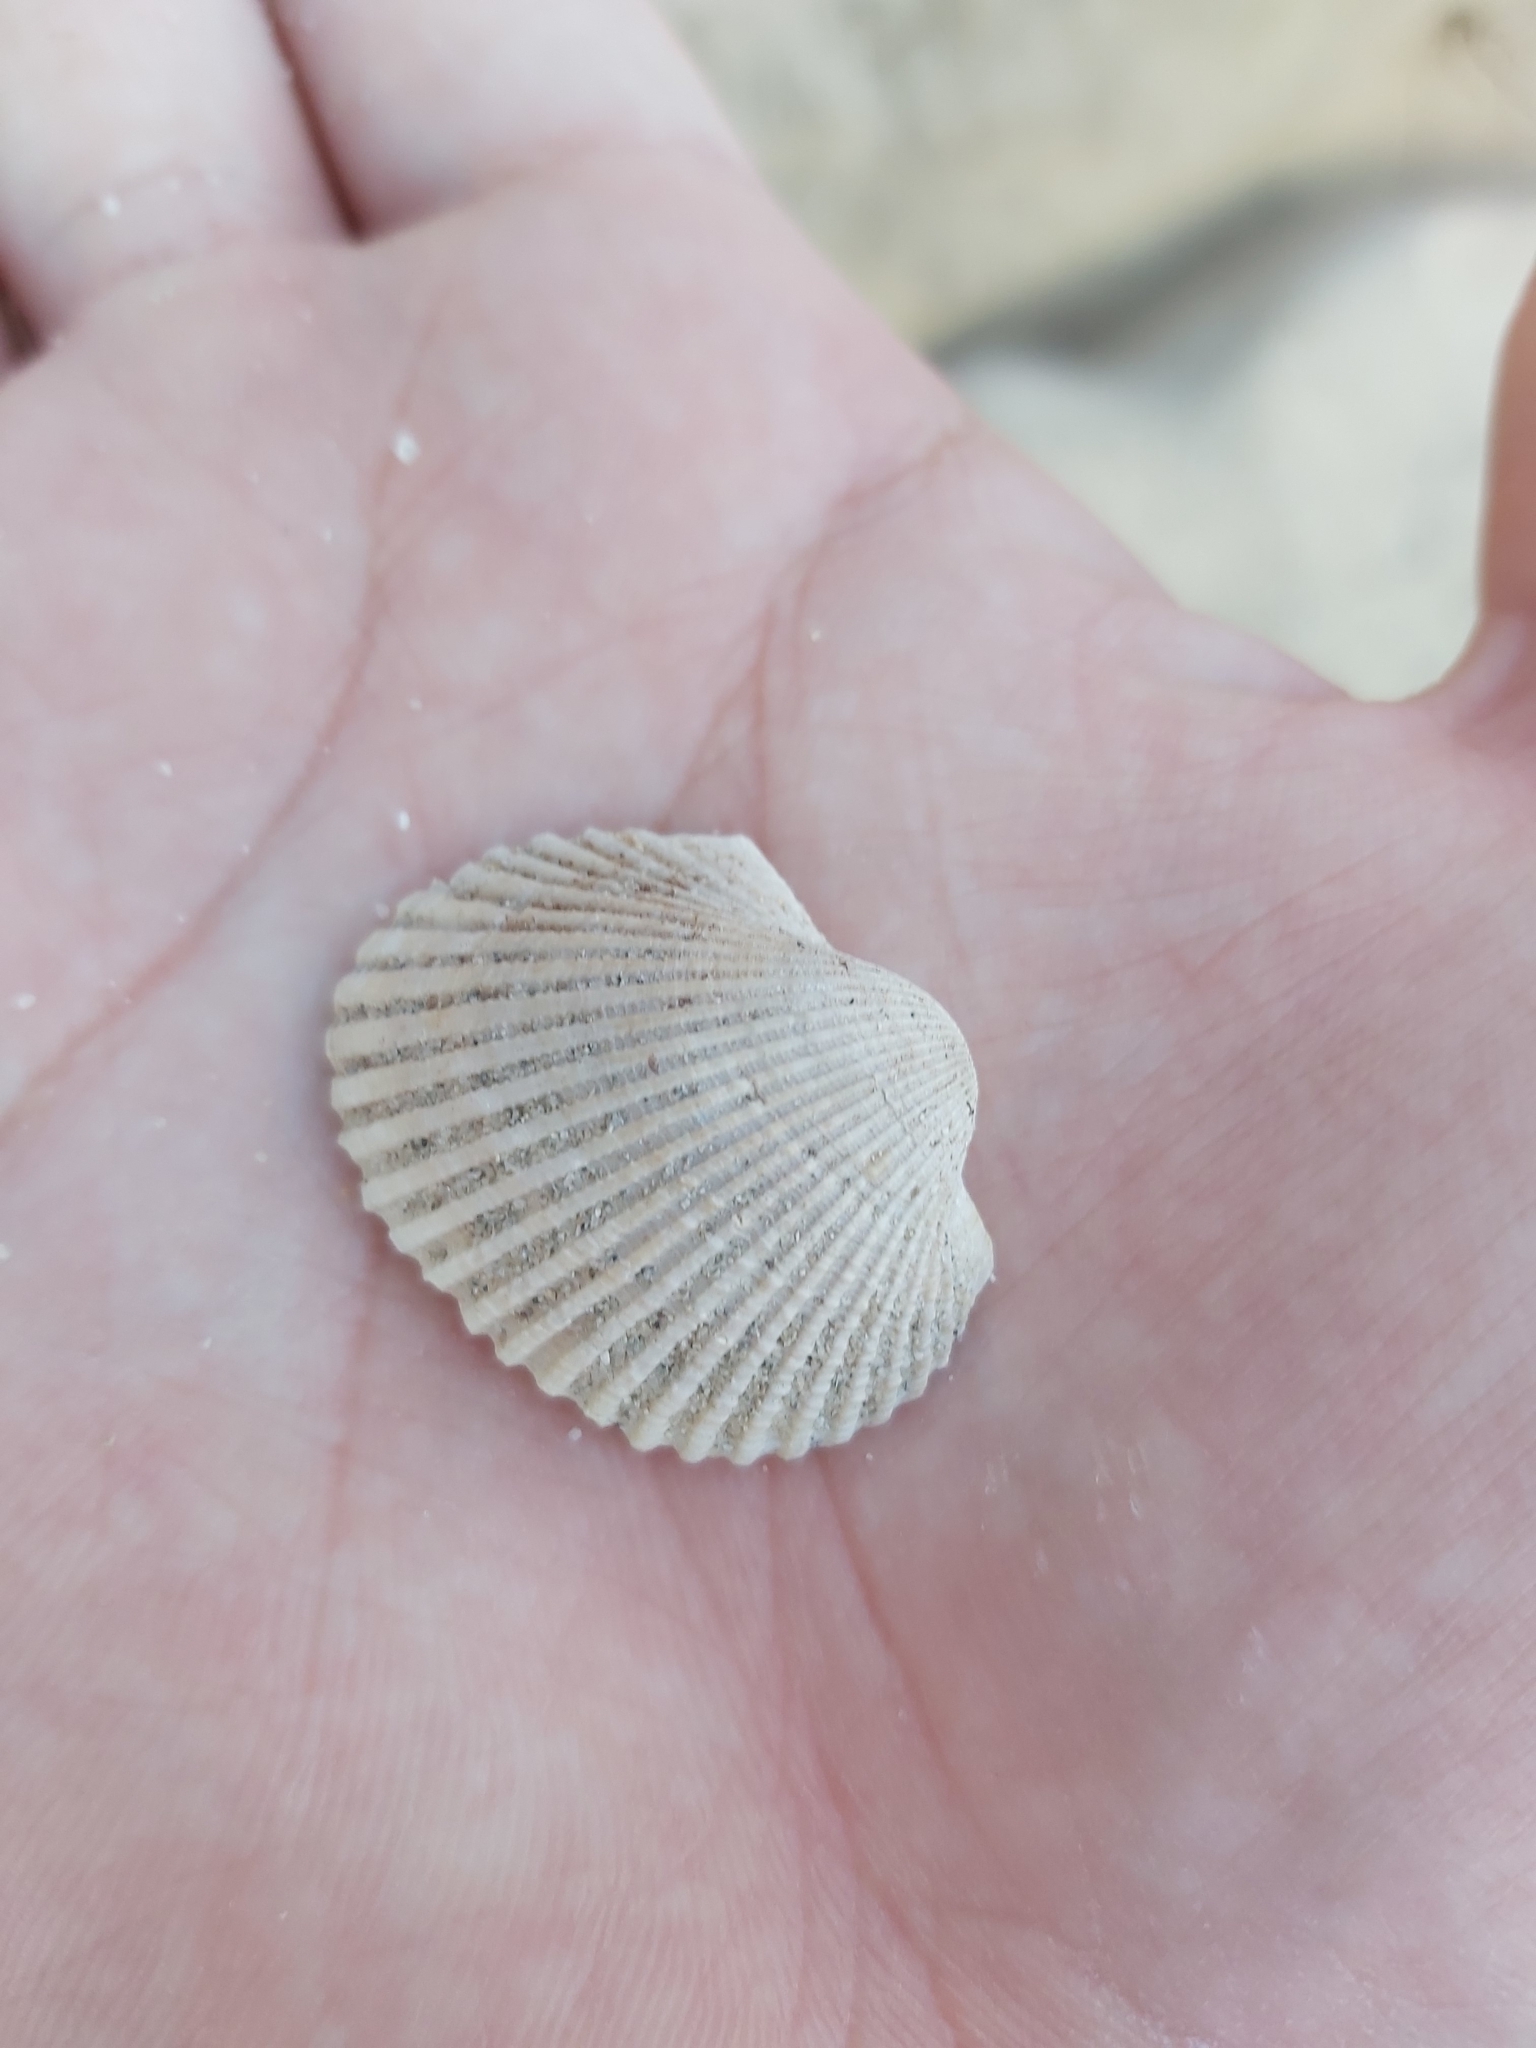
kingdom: Animalia
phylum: Mollusca
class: Bivalvia
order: Arcida
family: Arcidae
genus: Anadara
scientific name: Anadara trapezia
